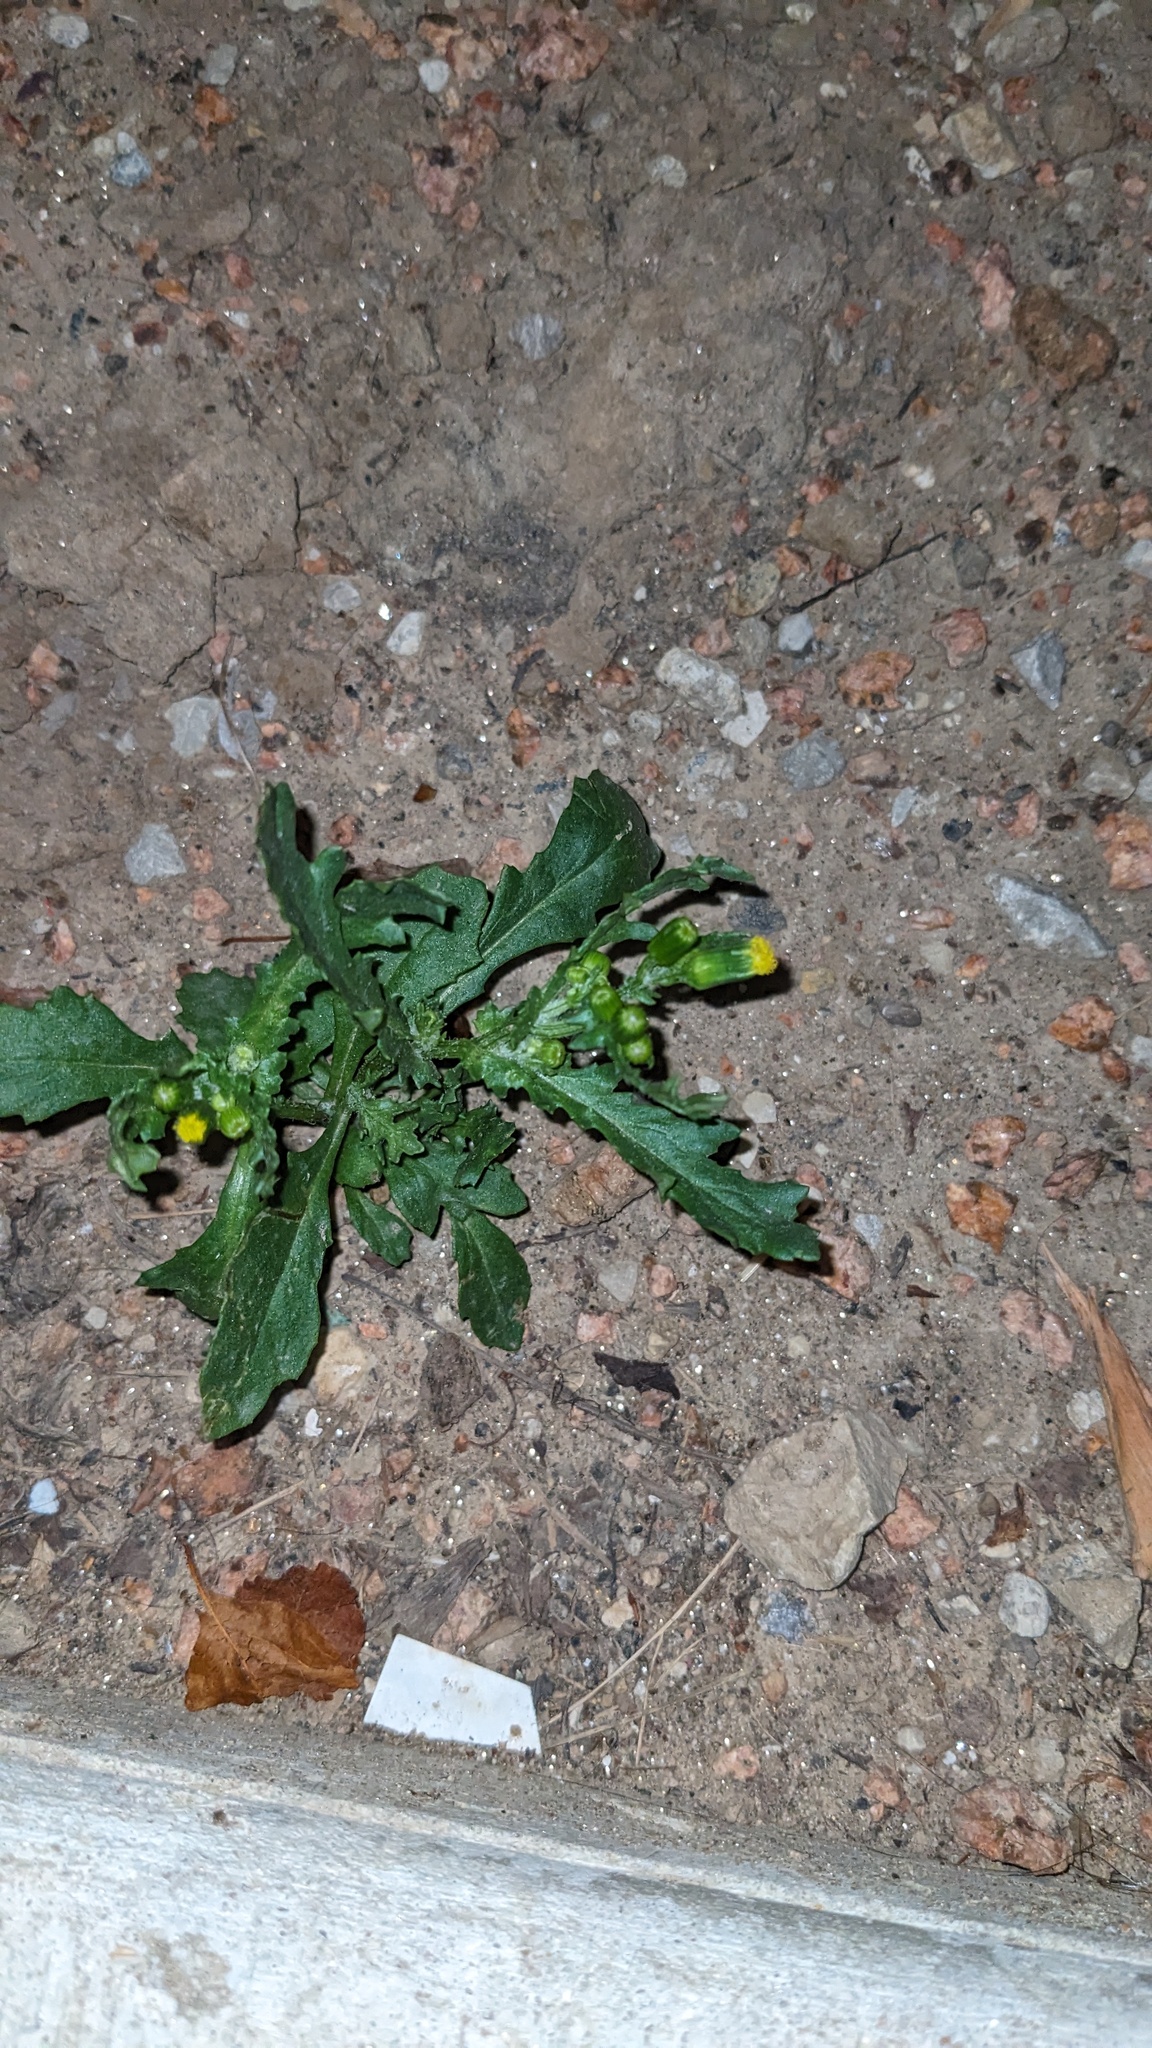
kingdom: Plantae
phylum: Tracheophyta
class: Magnoliopsida
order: Asterales
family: Asteraceae
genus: Senecio
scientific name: Senecio vulgaris
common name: Old-man-in-the-spring
